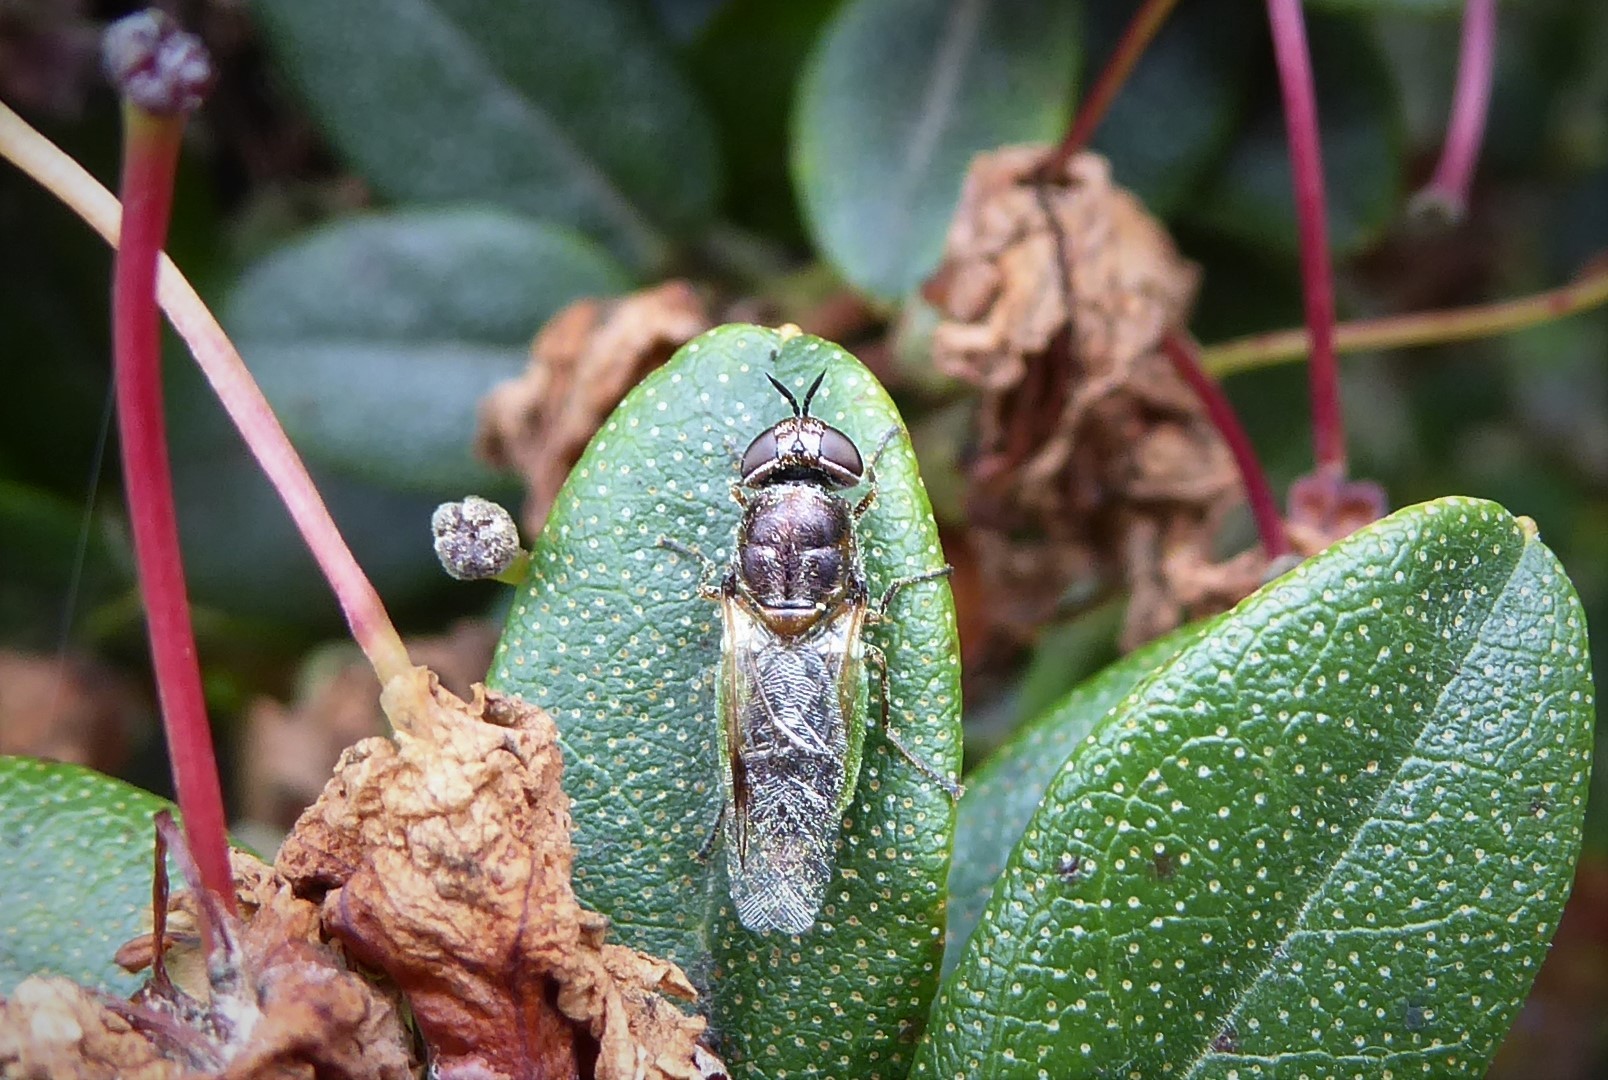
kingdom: Animalia
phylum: Arthropoda
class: Insecta
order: Diptera
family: Stratiomyidae
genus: Odontomyia
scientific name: Odontomyia fulviceps
